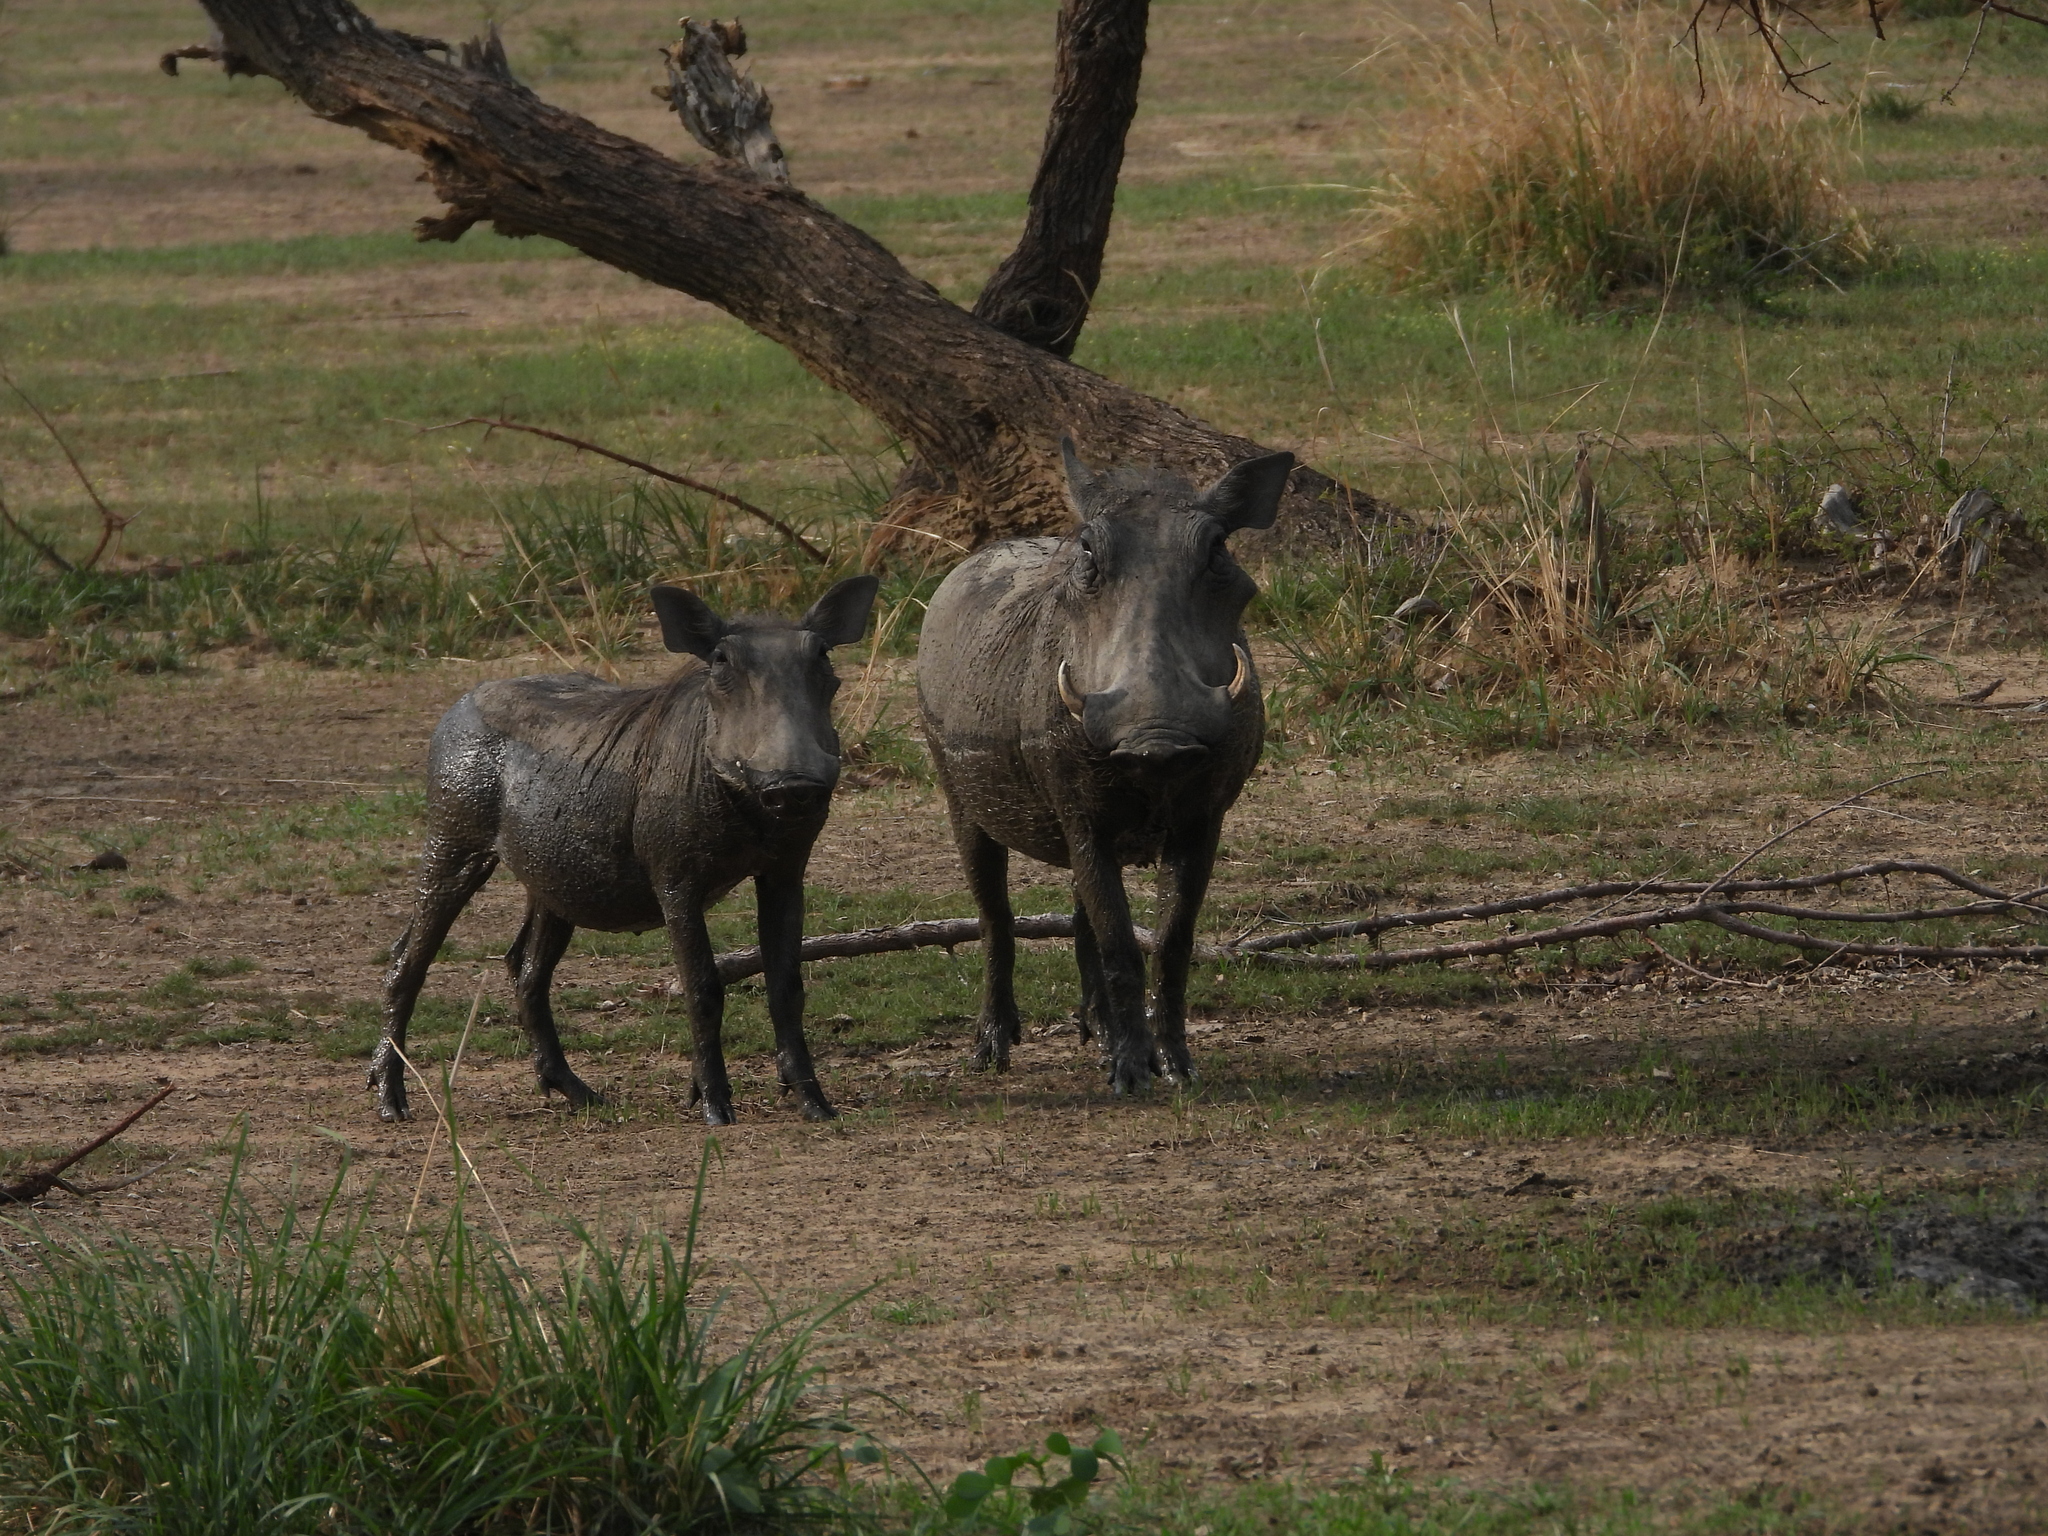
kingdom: Animalia
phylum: Chordata
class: Mammalia
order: Artiodactyla
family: Suidae
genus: Phacochoerus
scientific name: Phacochoerus africanus
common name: Common warthog
